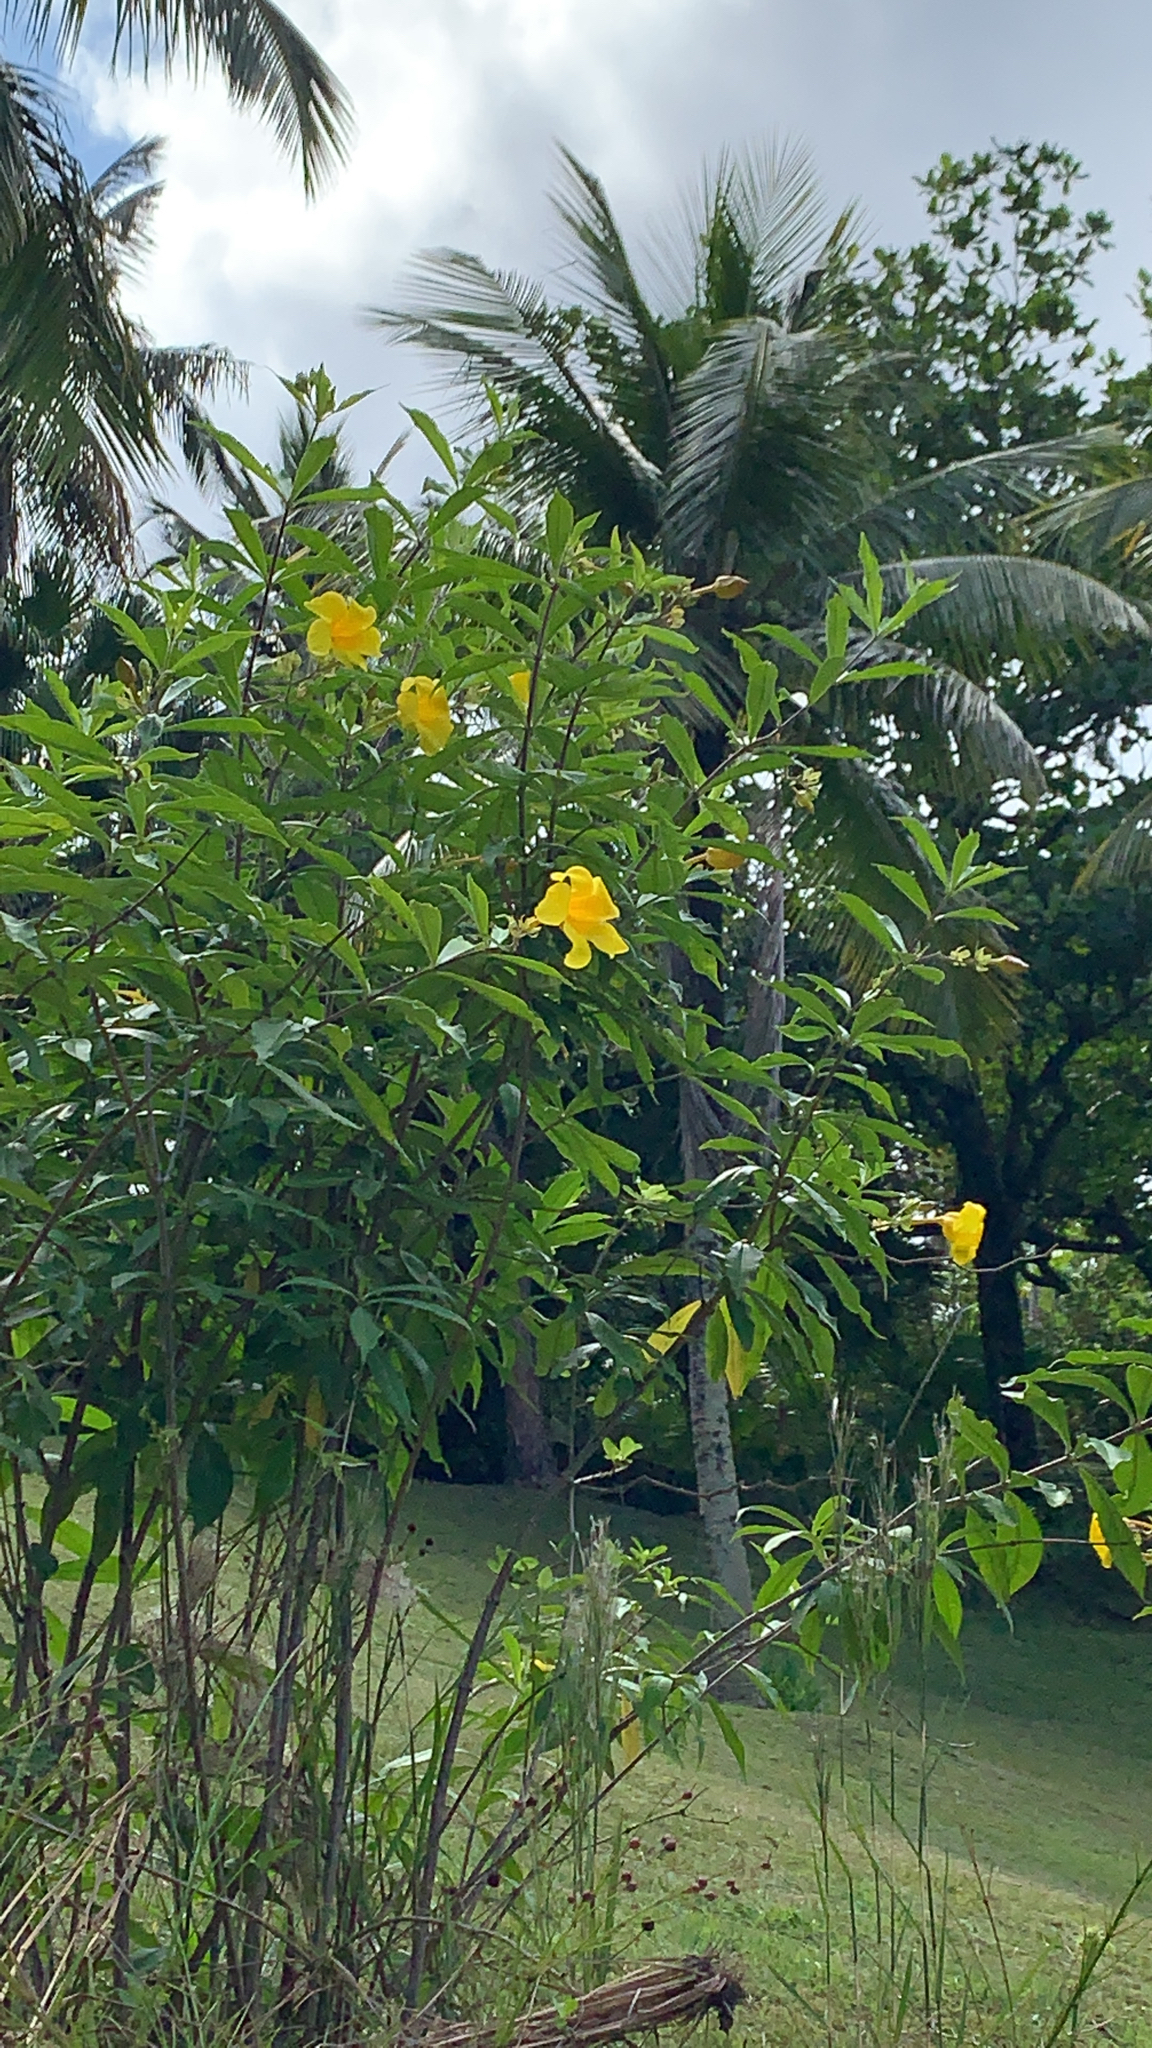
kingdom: Plantae
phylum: Tracheophyta
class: Magnoliopsida
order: Gentianales
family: Apocynaceae
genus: Allamanda
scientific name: Allamanda cathartica
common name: Golden trumpet
